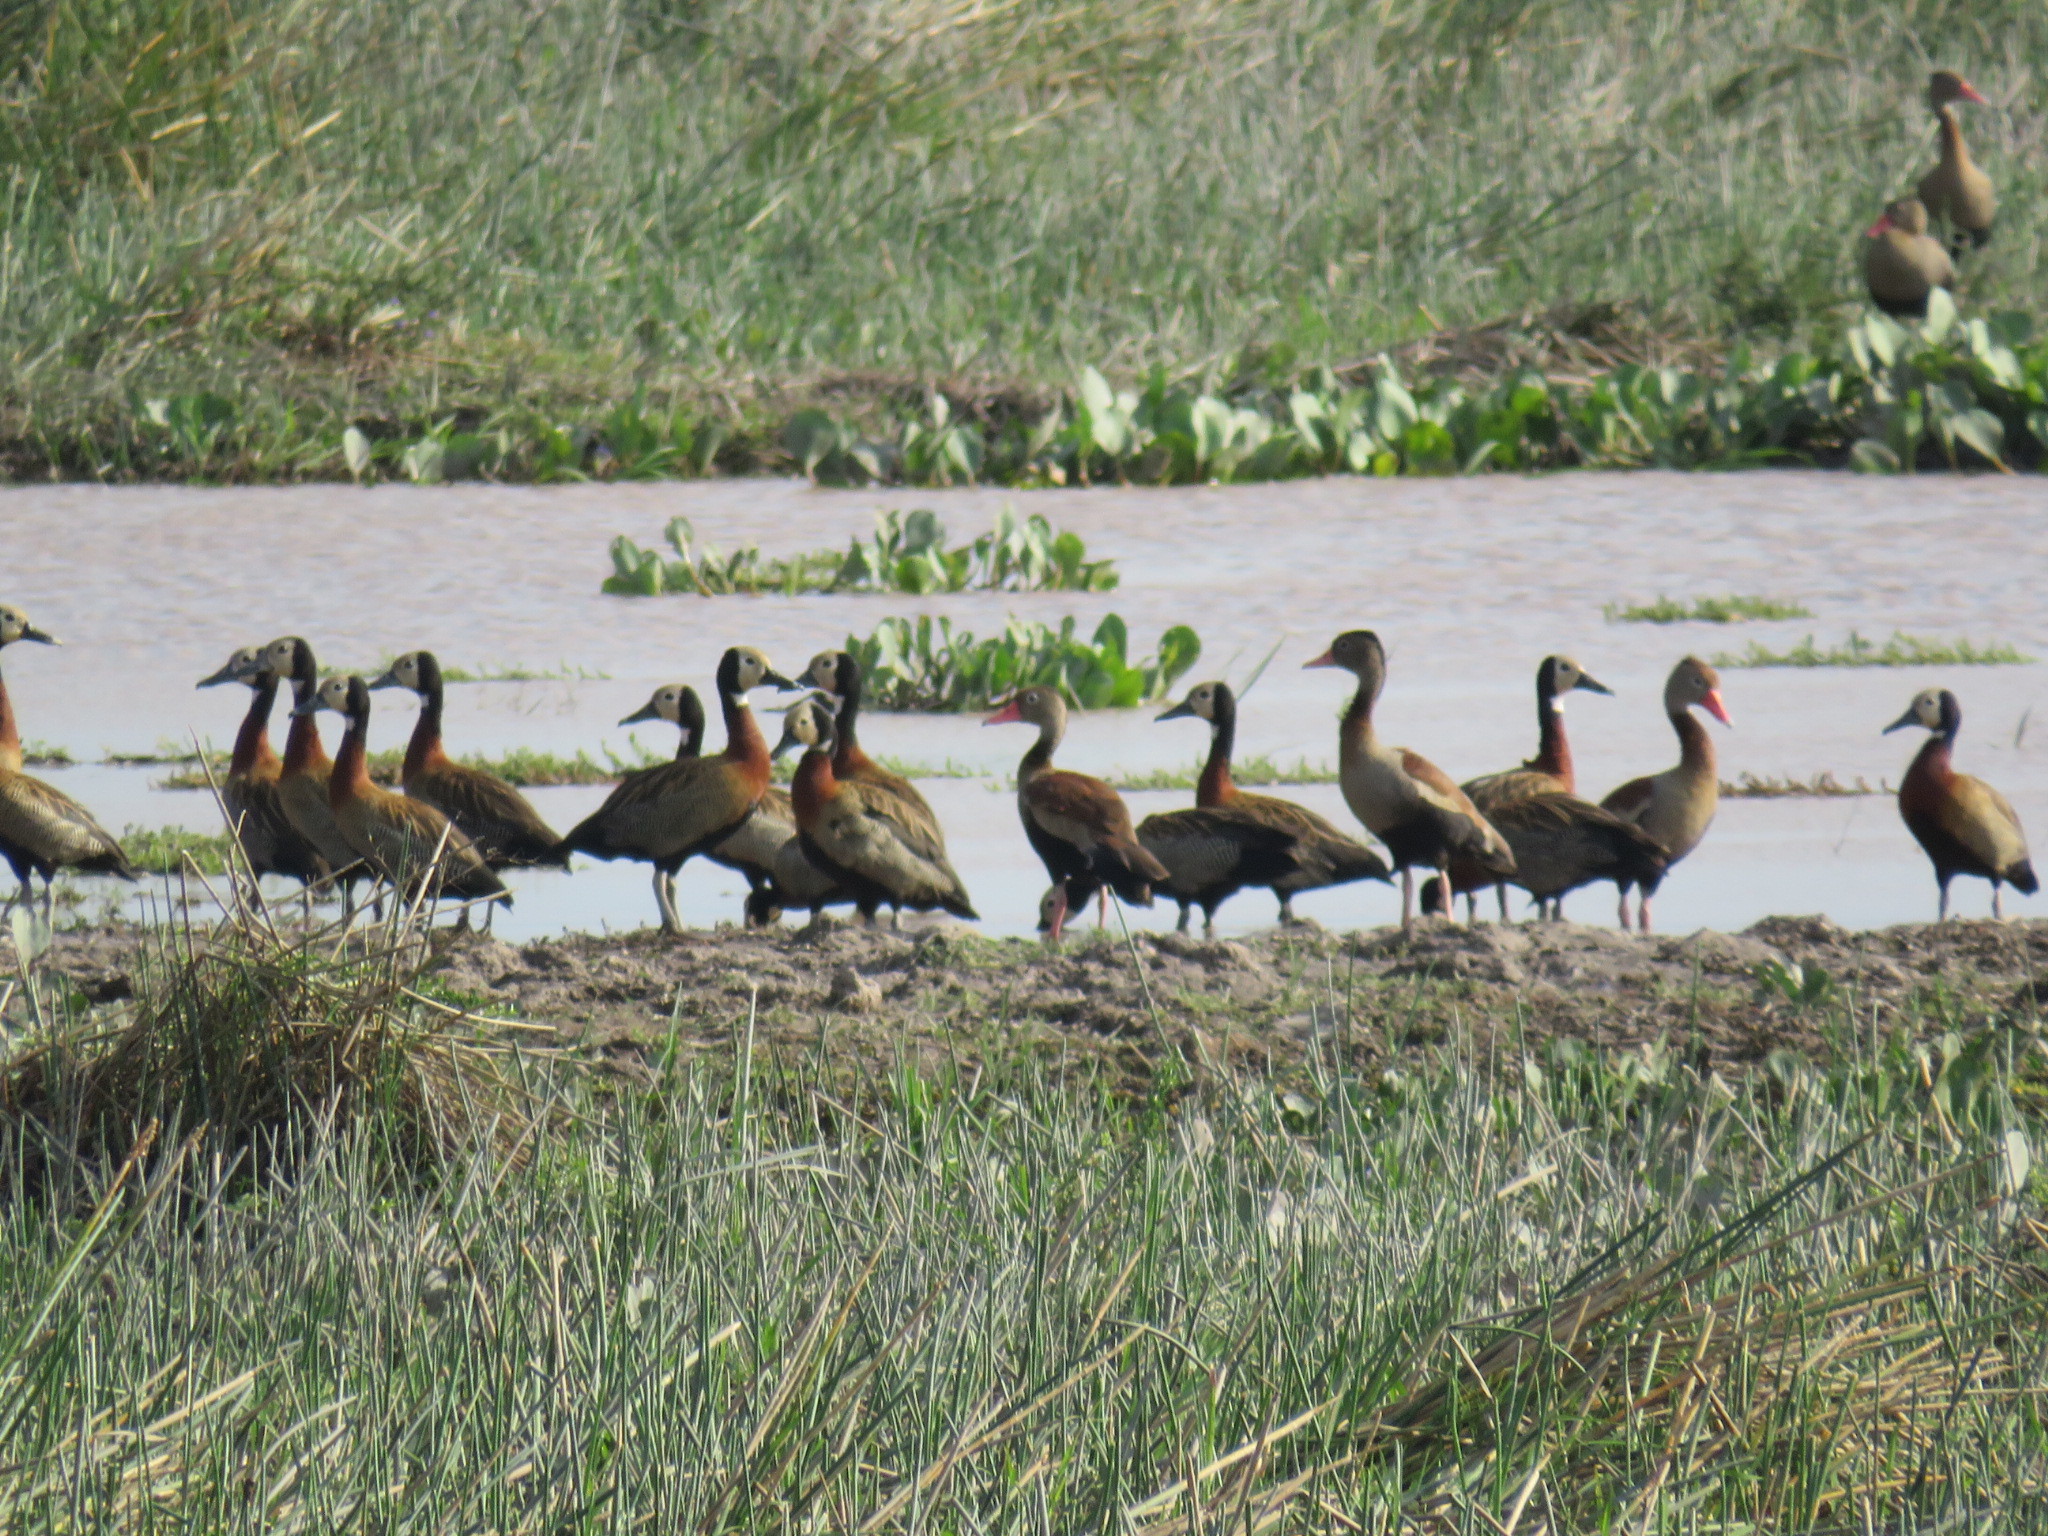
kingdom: Animalia
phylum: Chordata
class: Aves
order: Anseriformes
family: Anatidae
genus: Dendrocygna
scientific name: Dendrocygna viduata
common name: White-faced whistling duck
